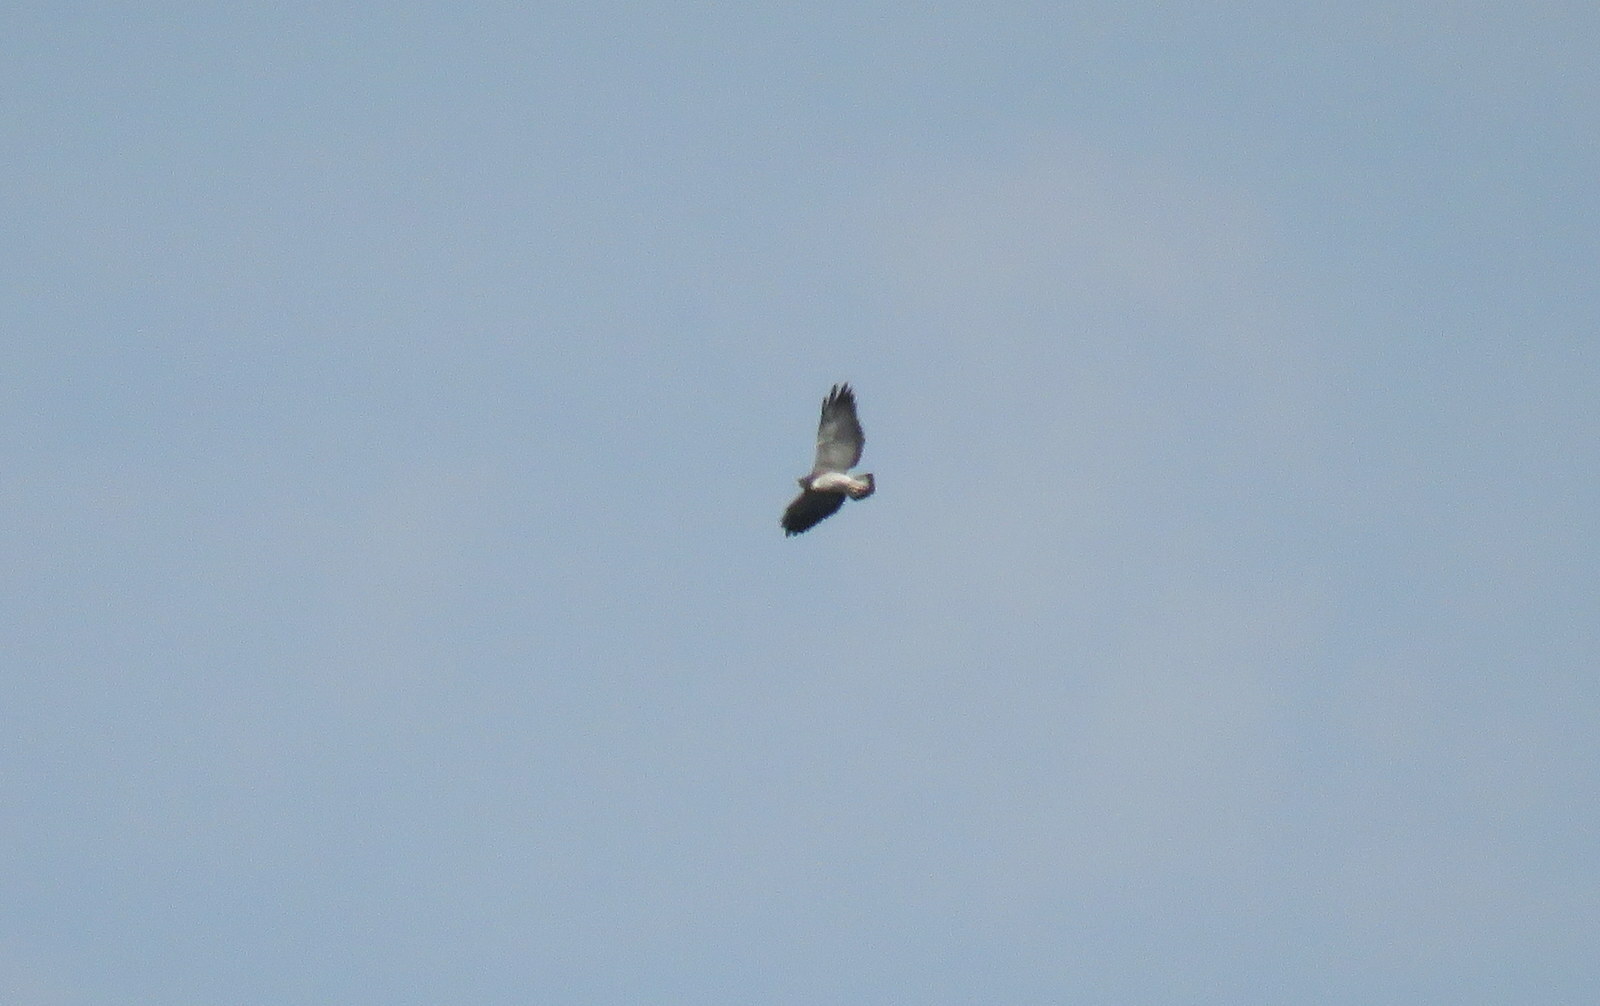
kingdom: Animalia
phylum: Chordata
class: Aves
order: Accipitriformes
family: Accipitridae
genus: Buteo
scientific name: Buteo albicaudatus
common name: White-tailed hawk
